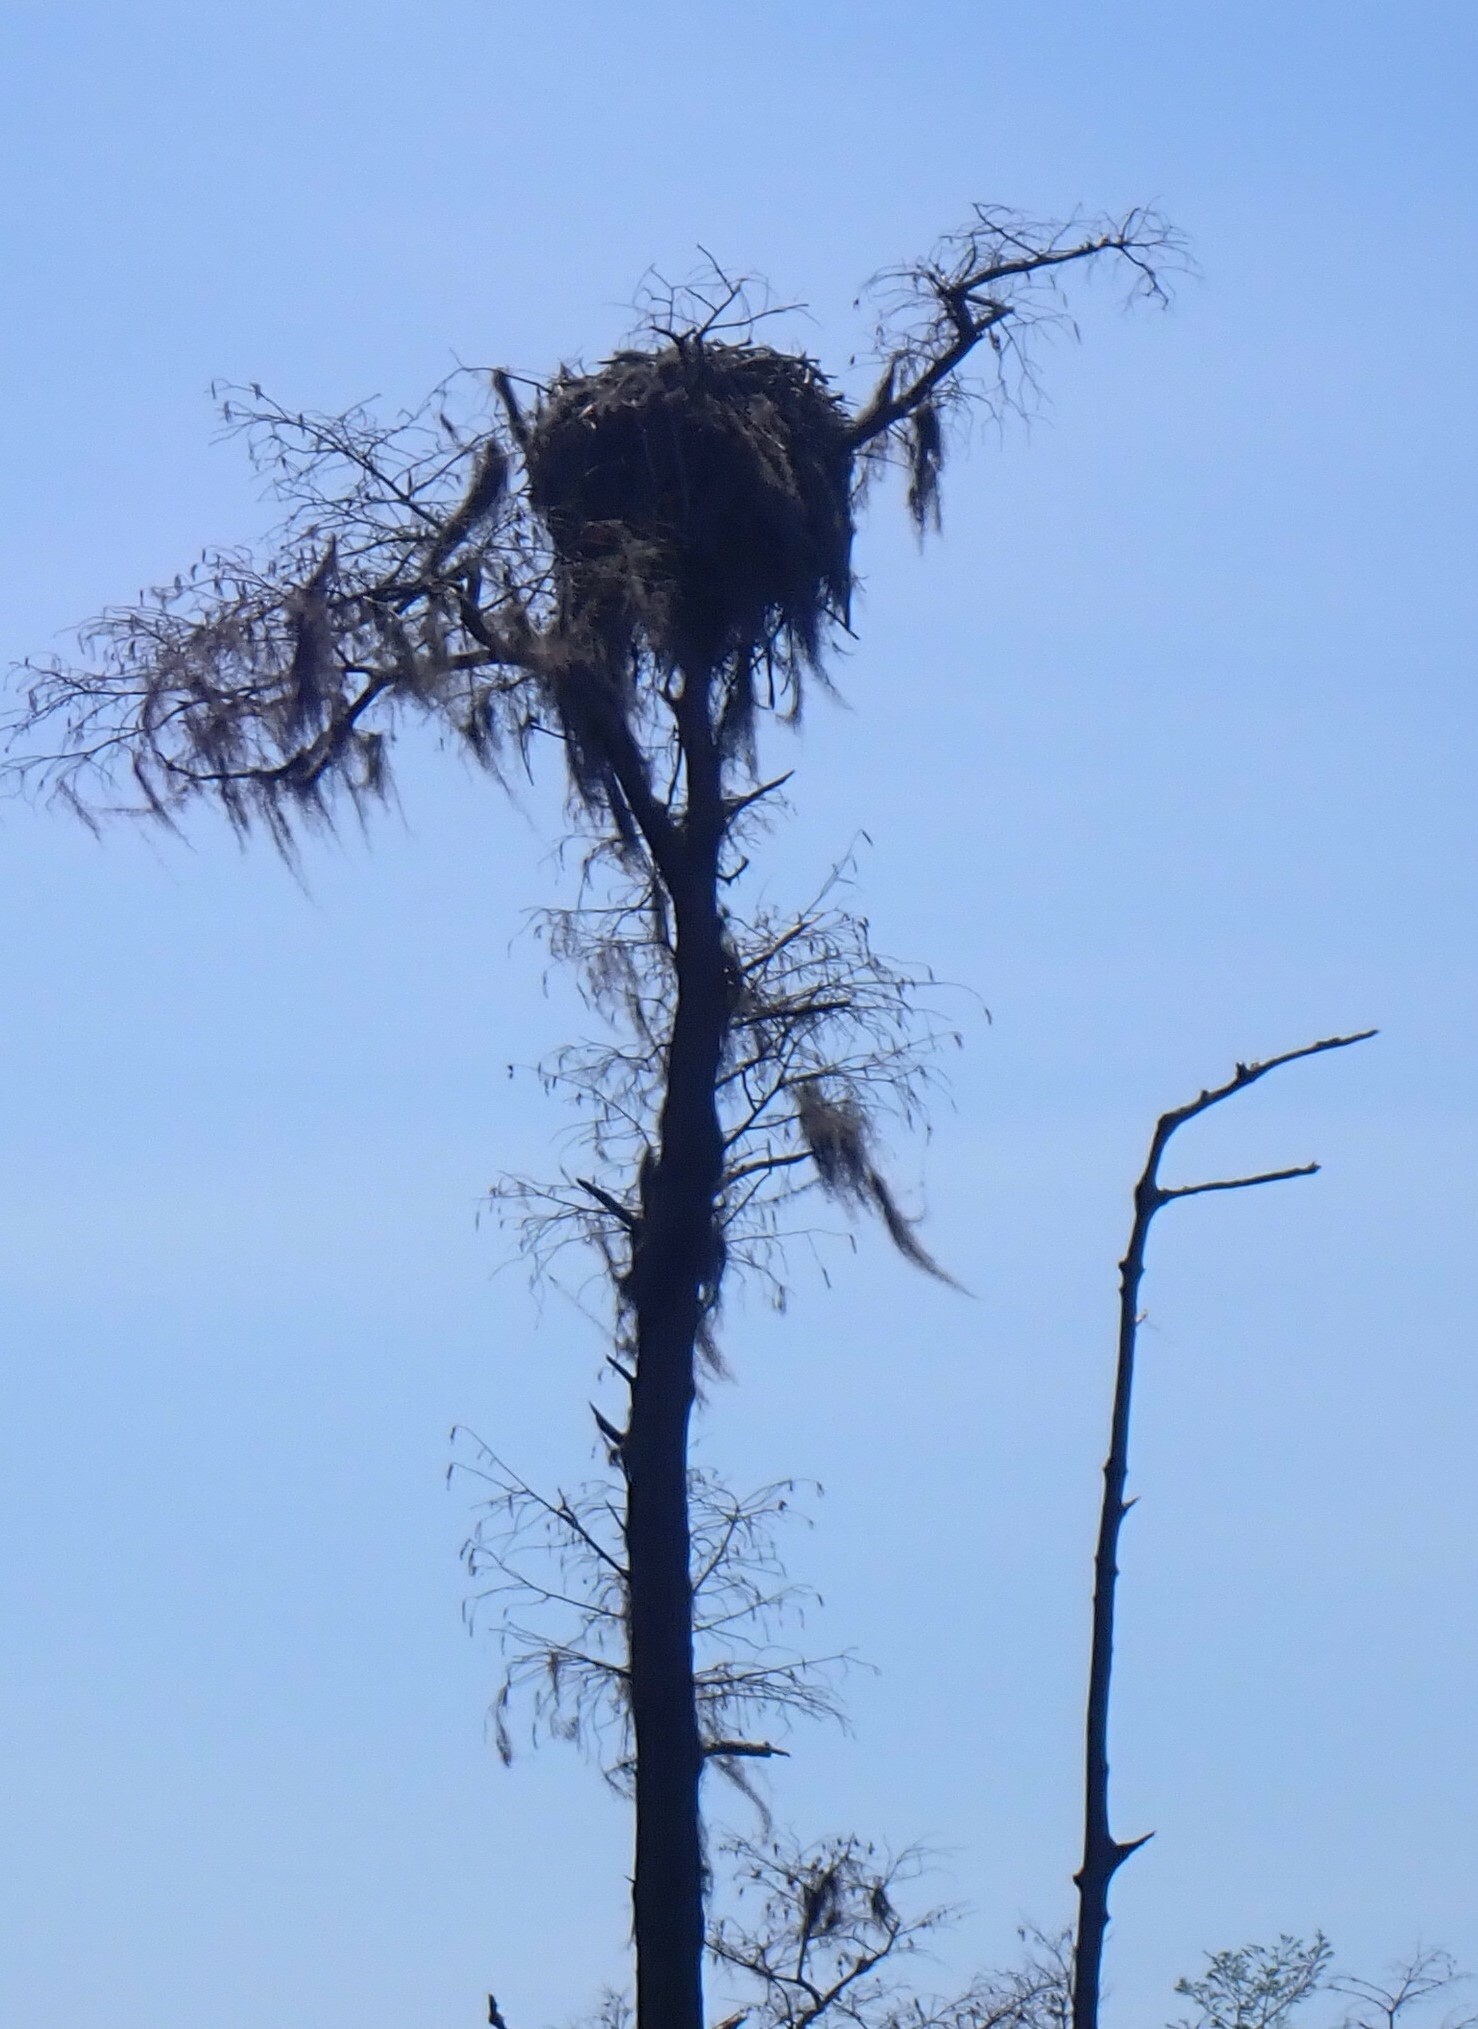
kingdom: Animalia
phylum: Chordata
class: Aves
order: Accipitriformes
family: Pandionidae
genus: Pandion
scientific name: Pandion haliaetus
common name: Osprey
